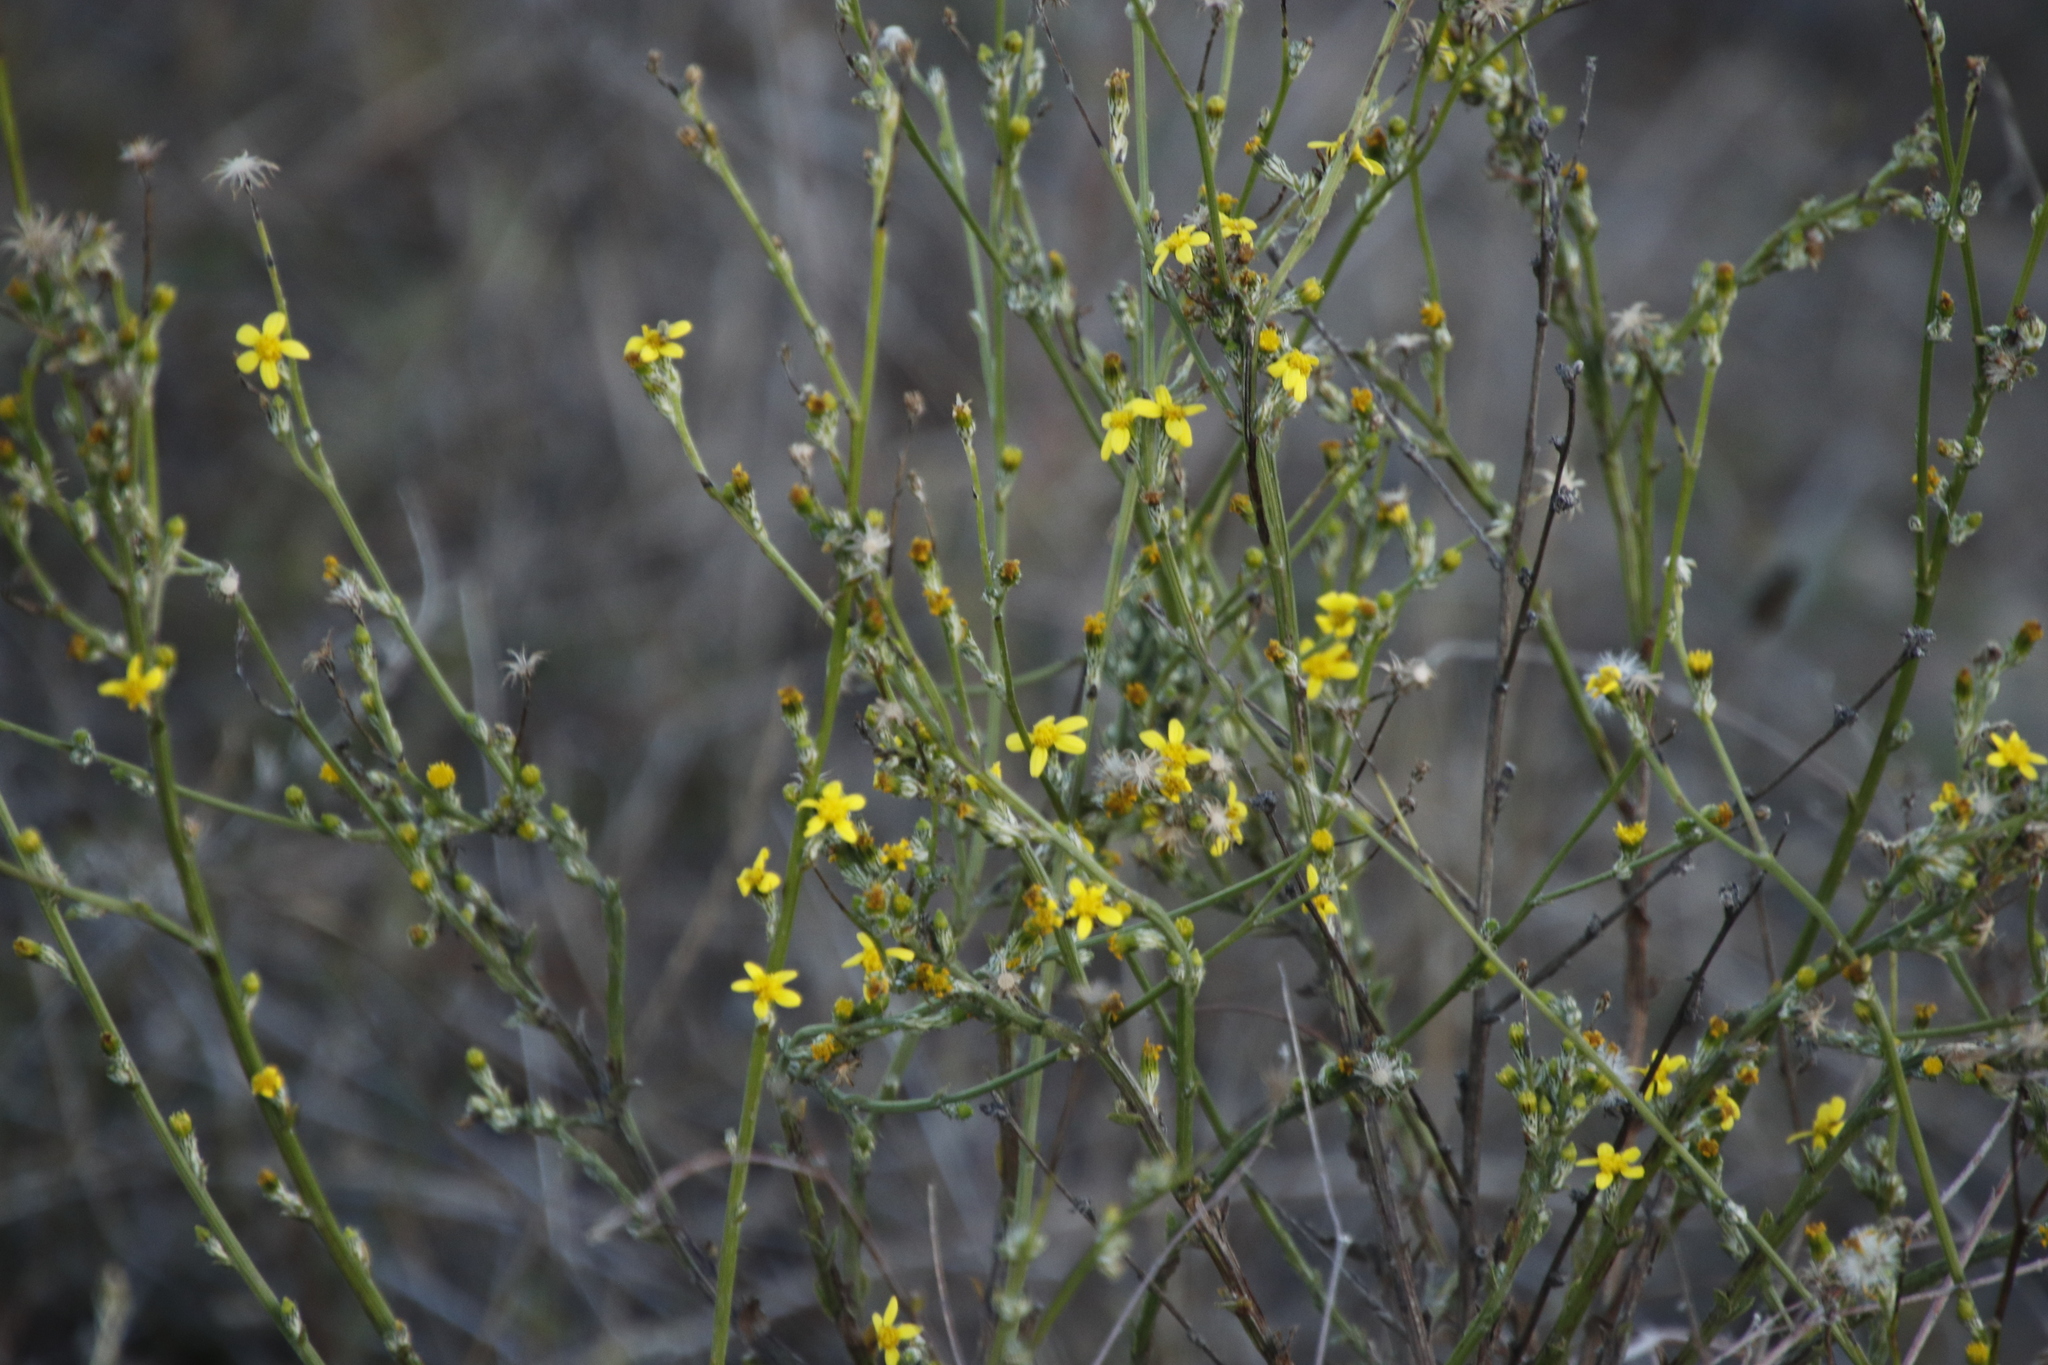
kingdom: Plantae
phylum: Tracheophyta
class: Magnoliopsida
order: Asterales
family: Asteraceae
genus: Senecio
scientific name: Senecio pubigerus
